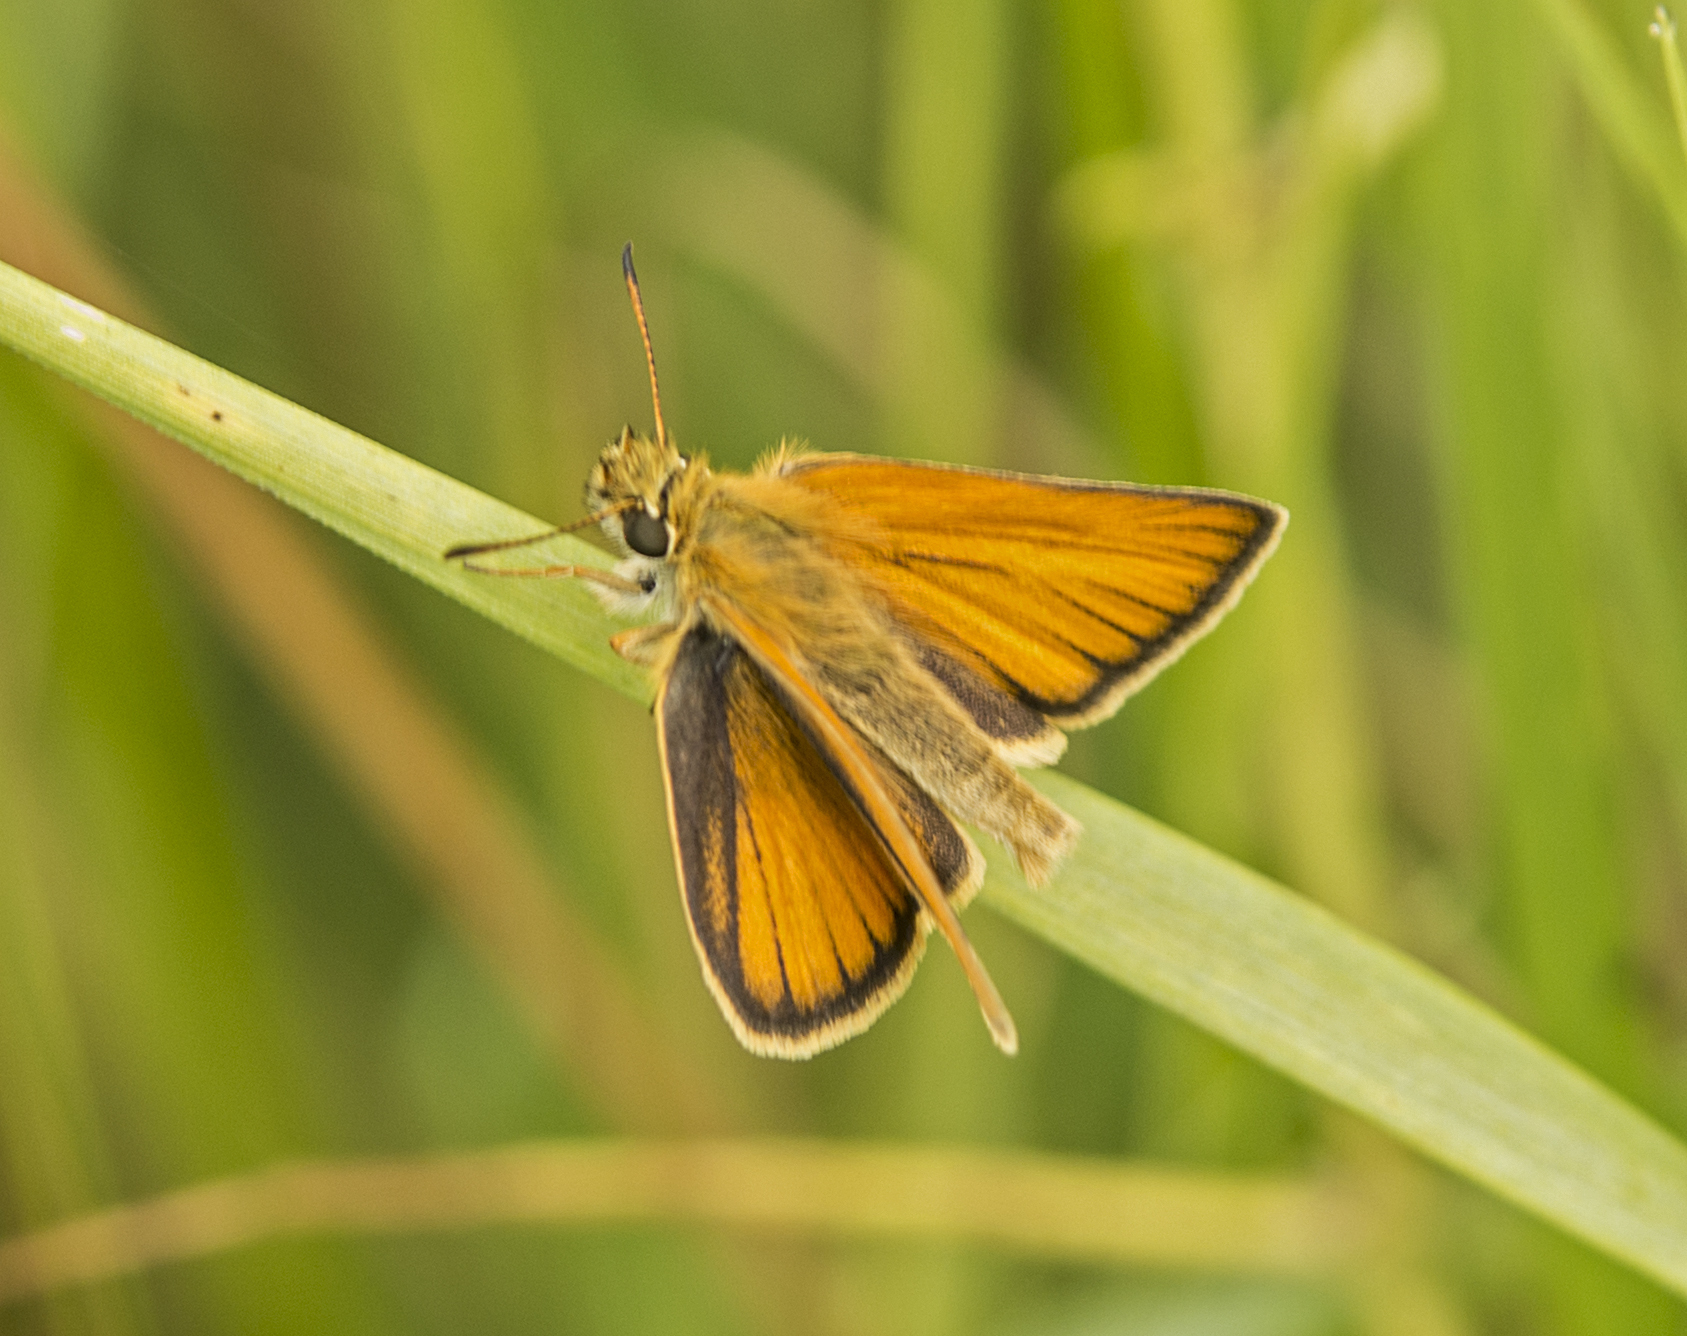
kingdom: Animalia
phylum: Arthropoda
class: Insecta
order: Lepidoptera
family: Hesperiidae
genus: Thymelicus
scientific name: Thymelicus lineola
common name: Essex skipper
